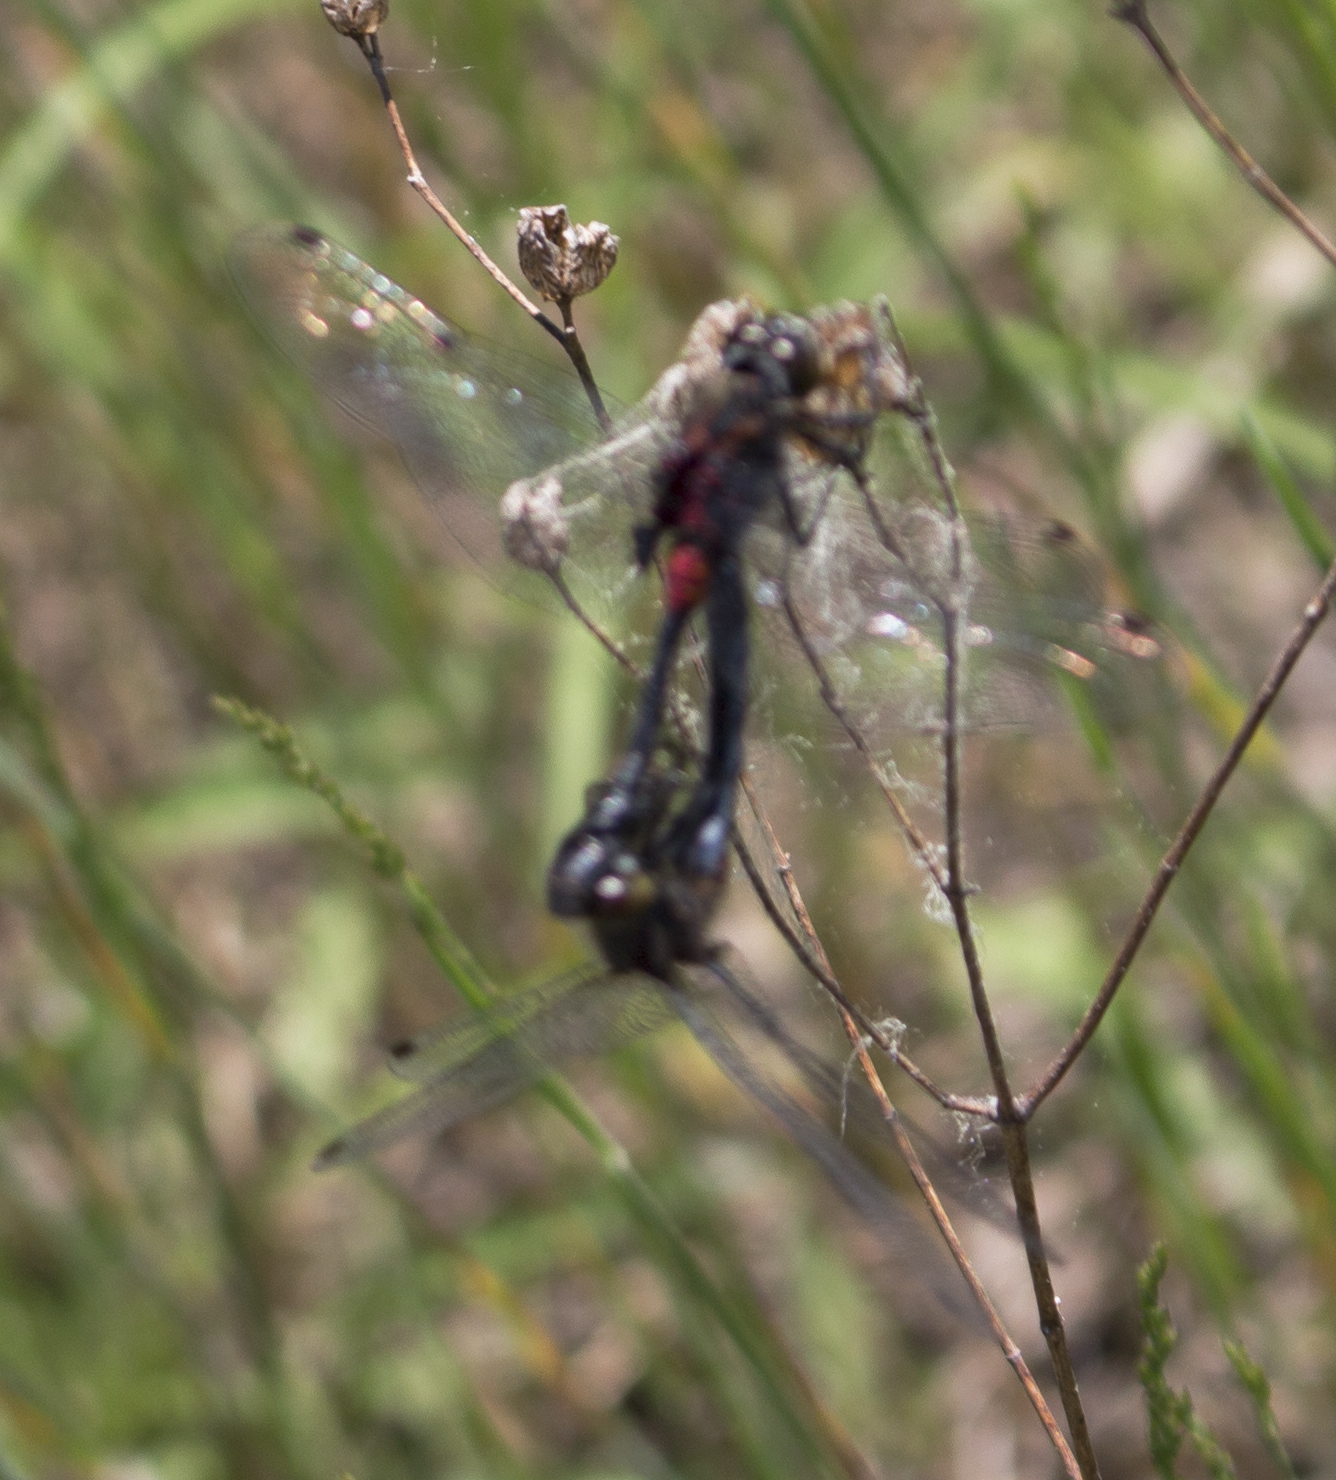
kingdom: Animalia
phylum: Arthropoda
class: Insecta
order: Odonata
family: Libellulidae
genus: Leucorrhinia
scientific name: Leucorrhinia glacialis
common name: Crimson-ringed whiteface
